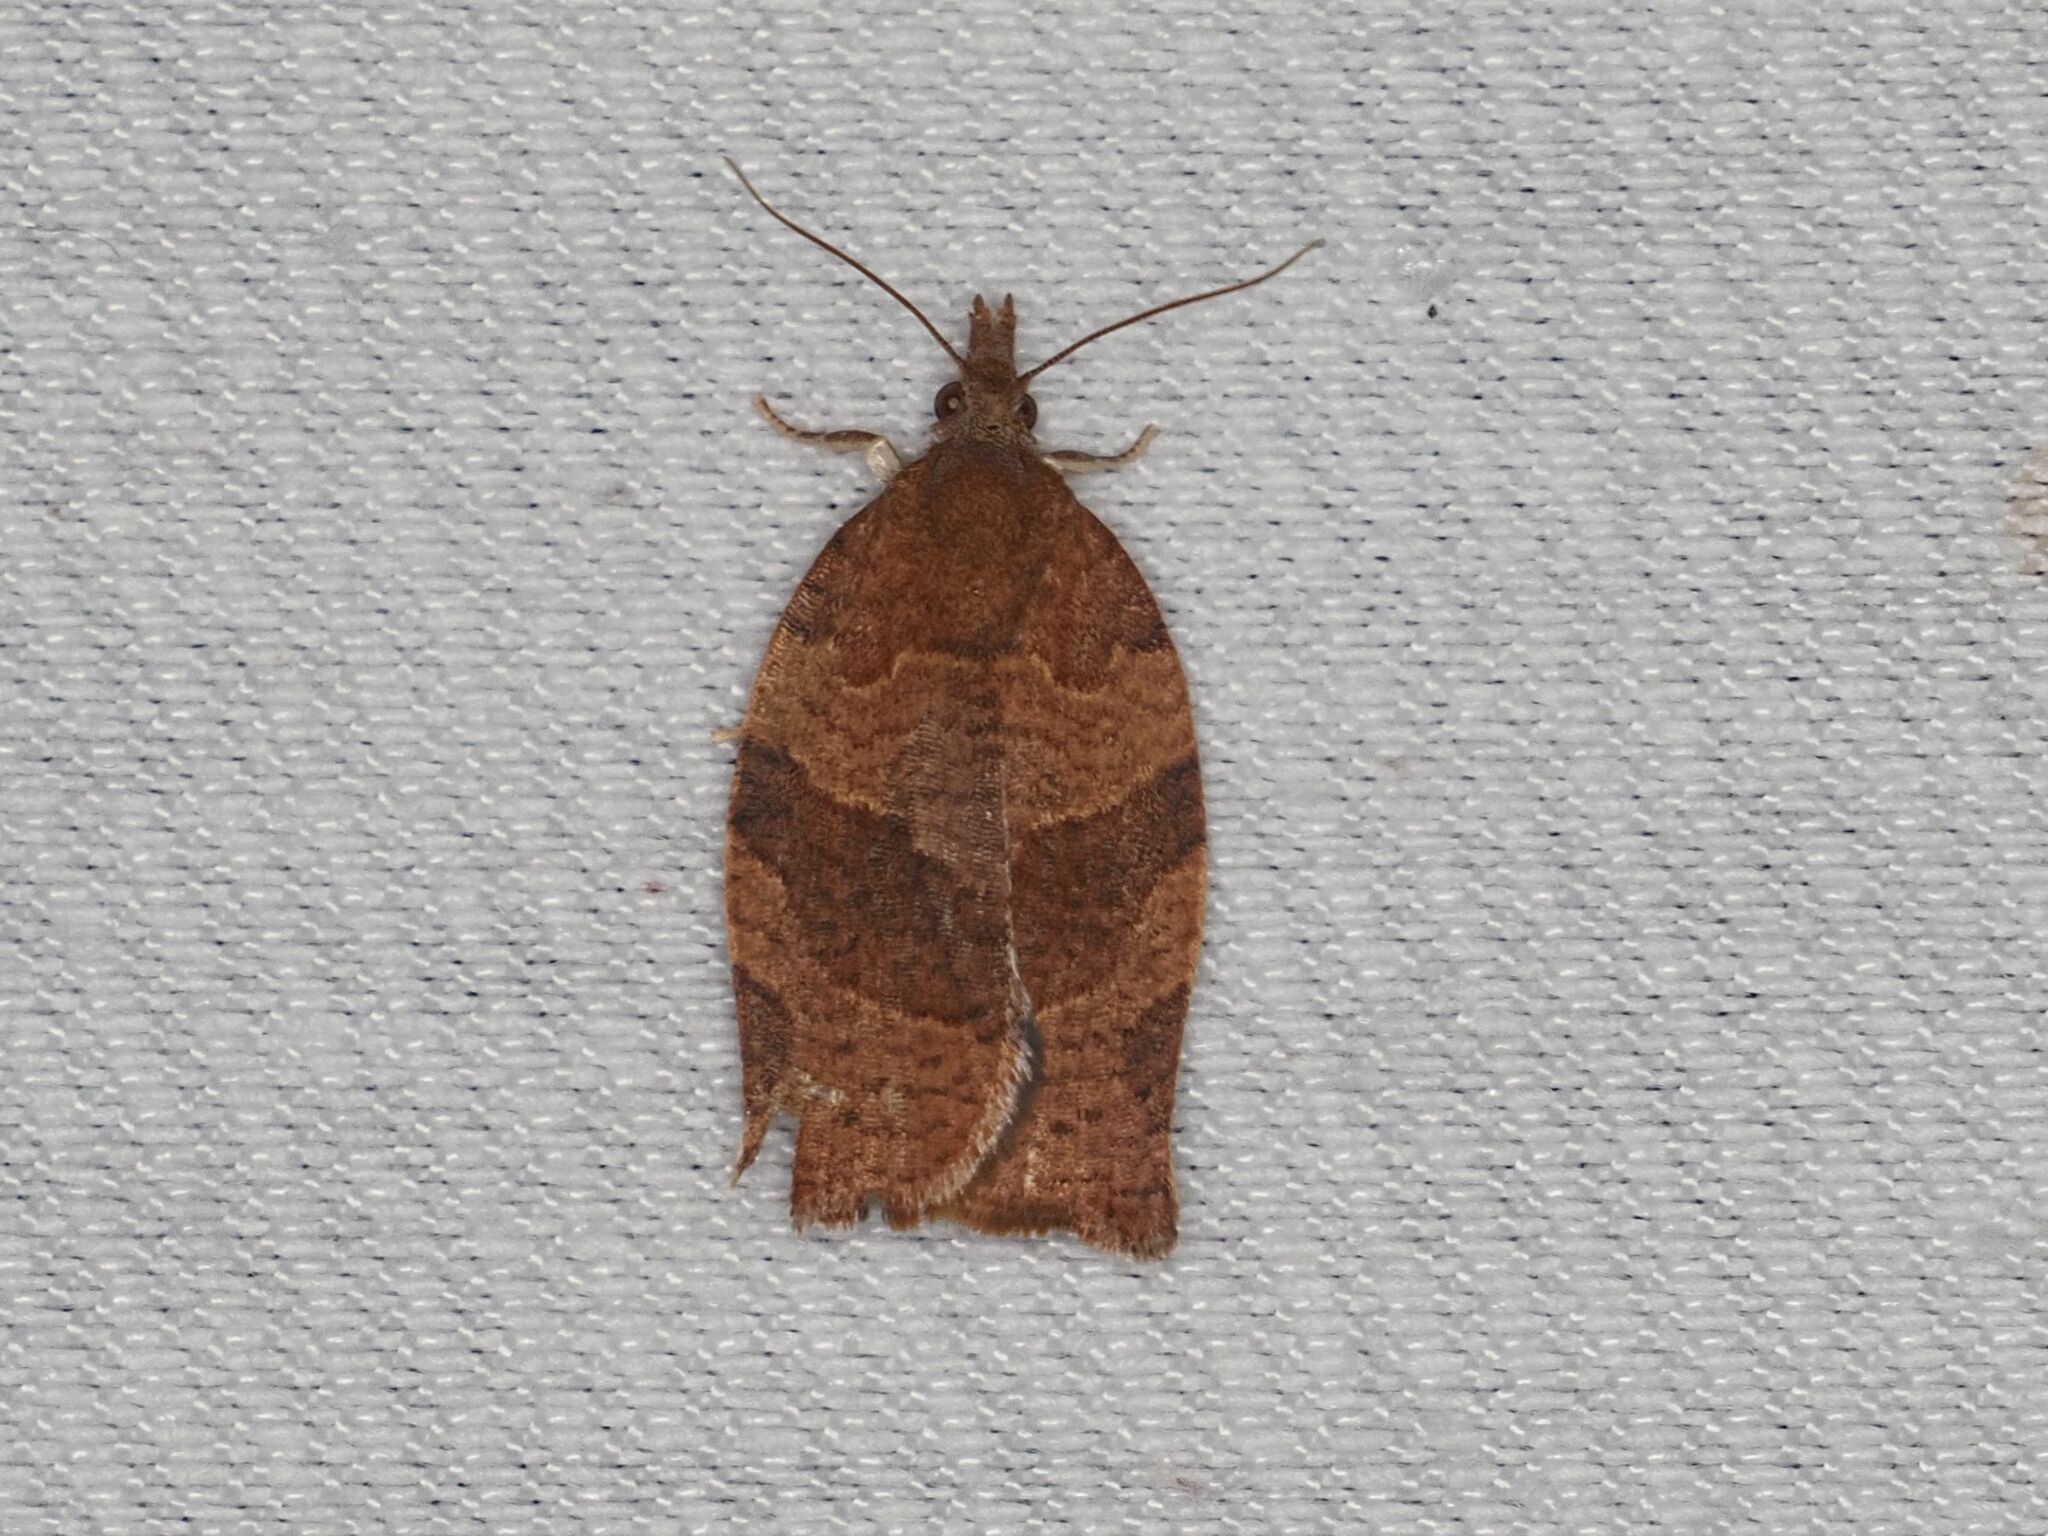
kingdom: Animalia
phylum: Arthropoda
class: Insecta
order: Lepidoptera
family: Tortricidae
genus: Pandemis
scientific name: Pandemis heparana
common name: Dark fruit-tree tortrix
